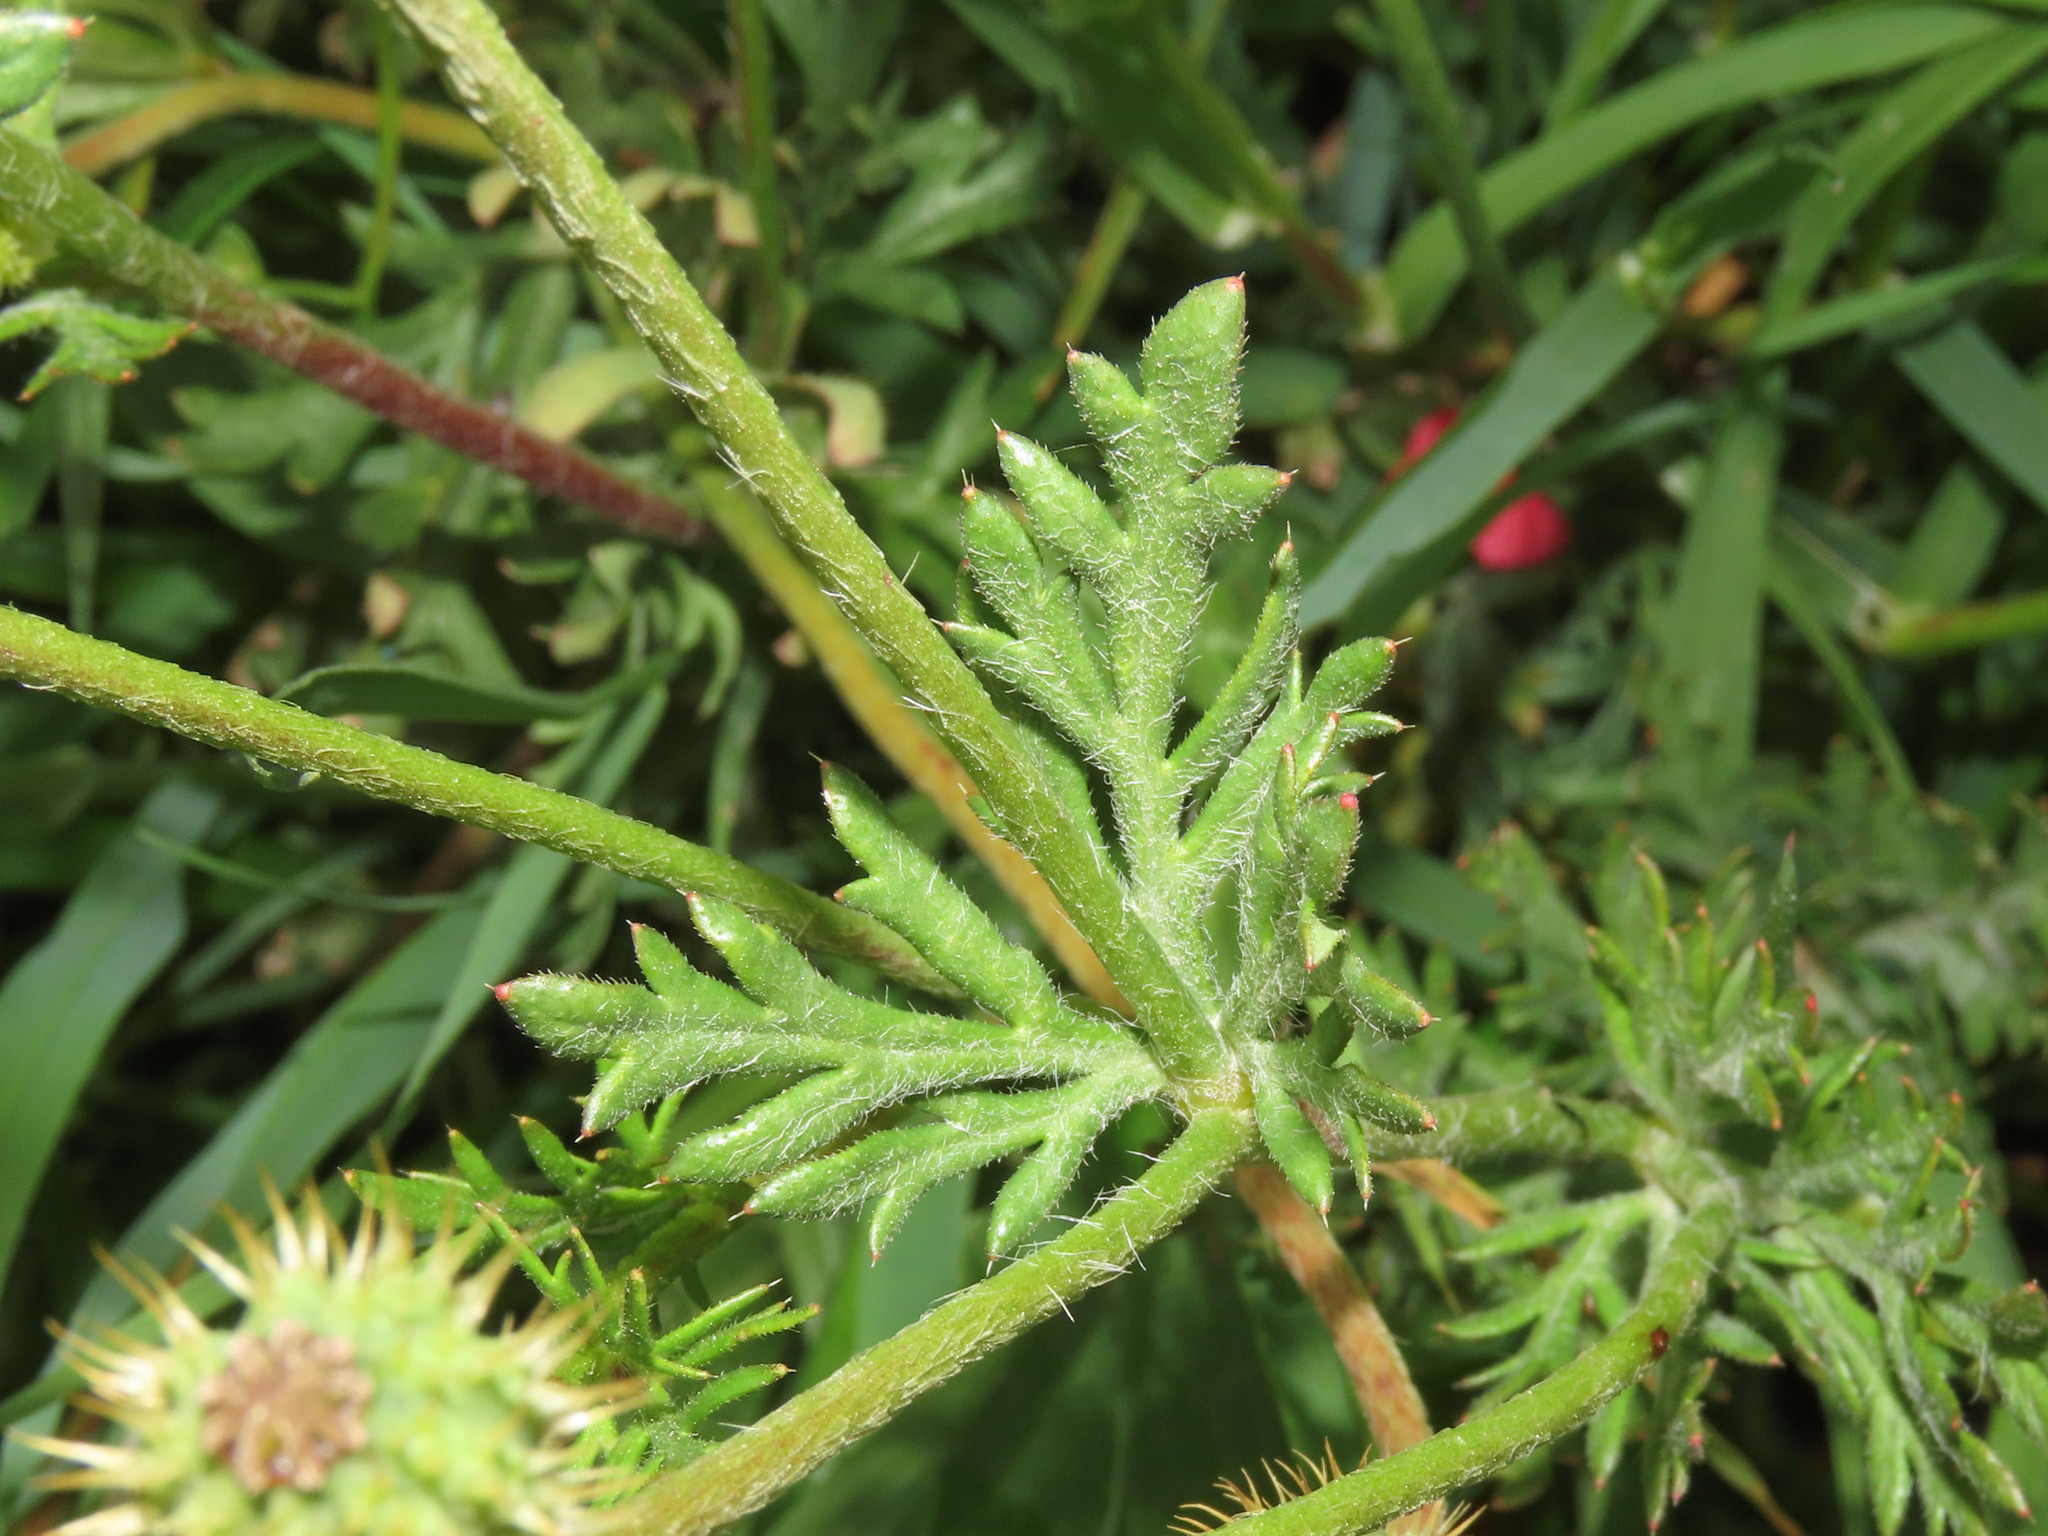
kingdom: Plantae
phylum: Tracheophyta
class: Magnoliopsida
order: Ranunculales
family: Papaveraceae
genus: Roemeria
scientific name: Roemeria hispida
